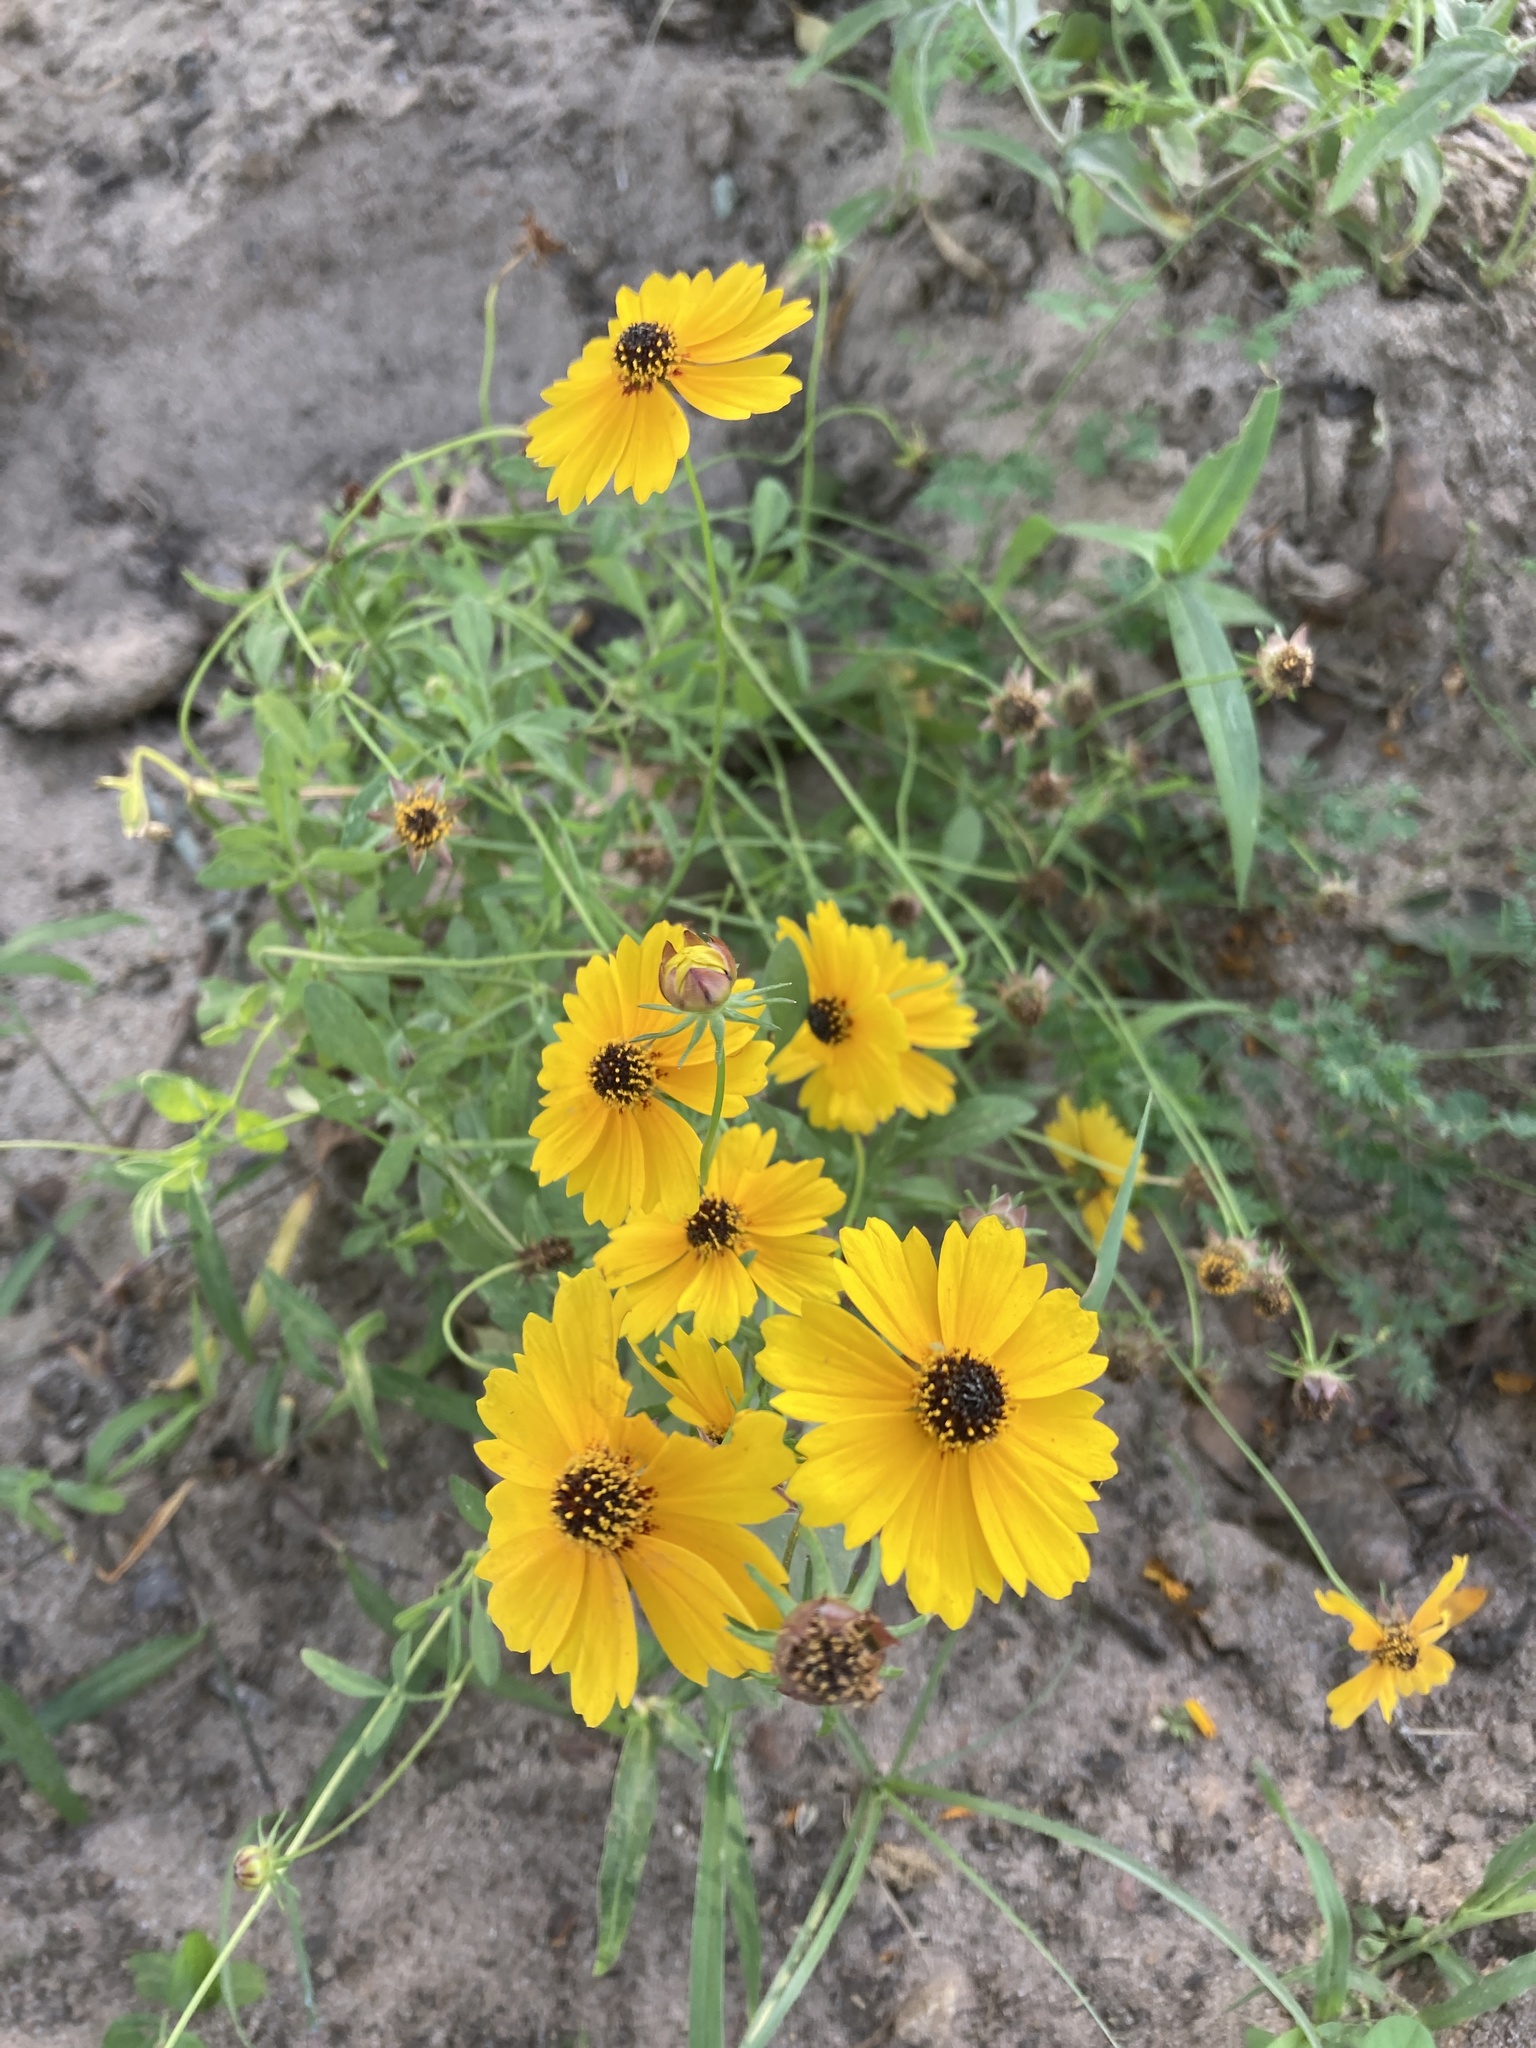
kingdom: Plantae
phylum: Tracheophyta
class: Magnoliopsida
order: Asterales
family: Asteraceae
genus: Coreopsis
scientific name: Coreopsis basalis
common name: Golden-mane coreopsis
